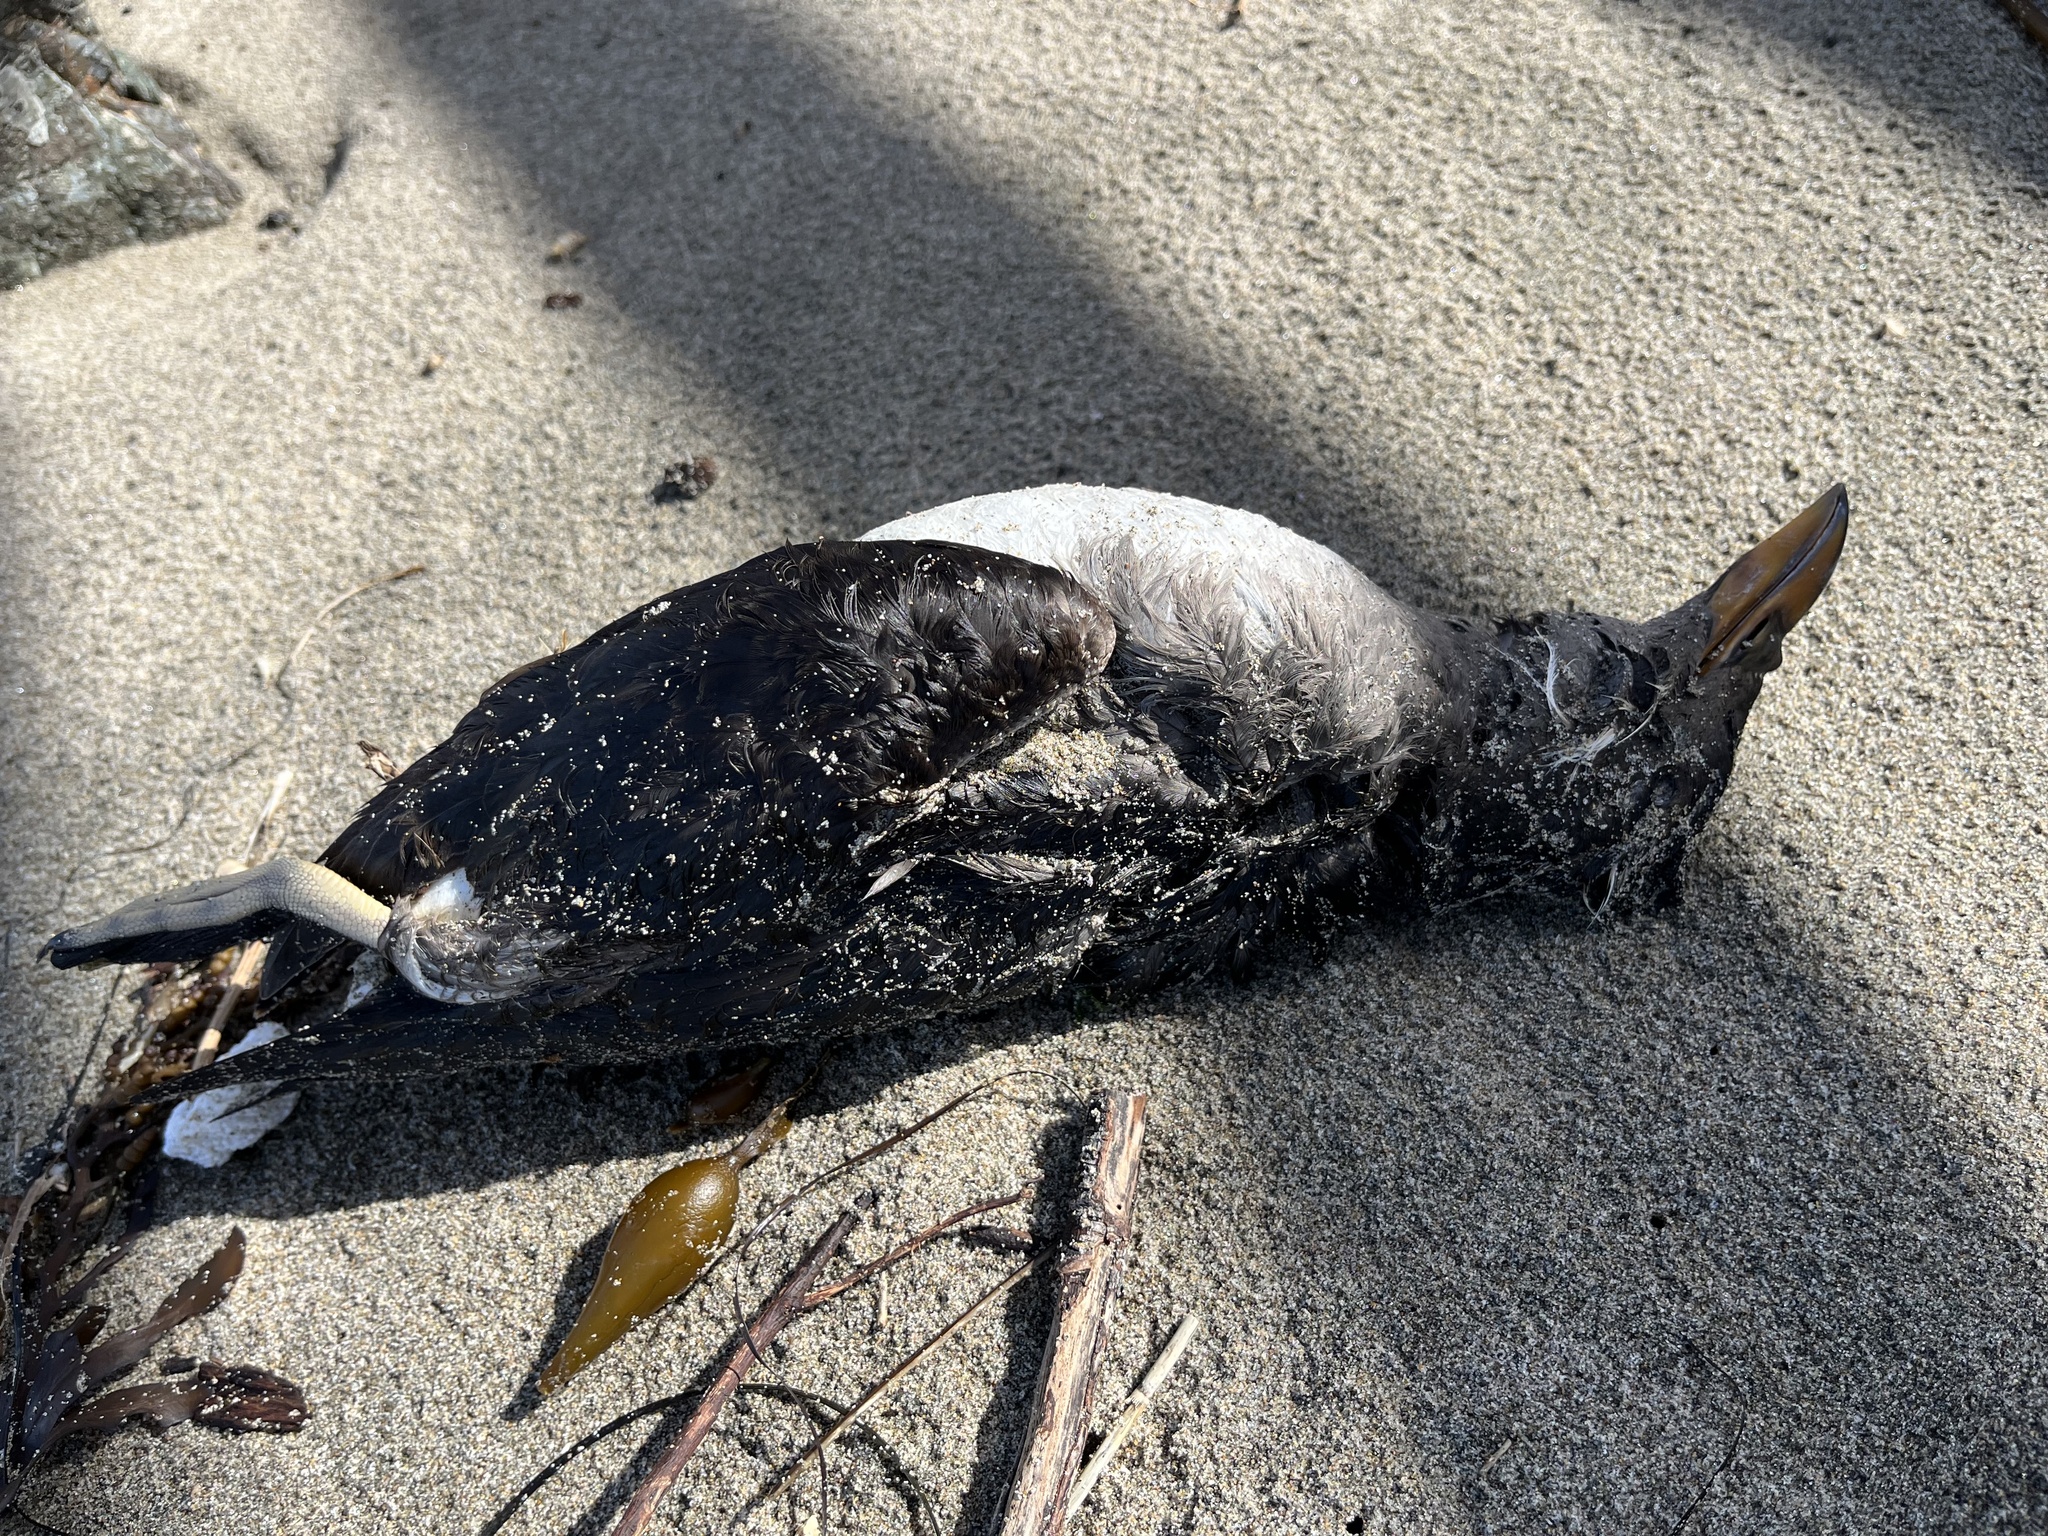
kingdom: Animalia
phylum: Chordata
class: Aves
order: Charadriiformes
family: Alcidae
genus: Cerorhinca
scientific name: Cerorhinca monocerata
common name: Rhinoceros auklet
